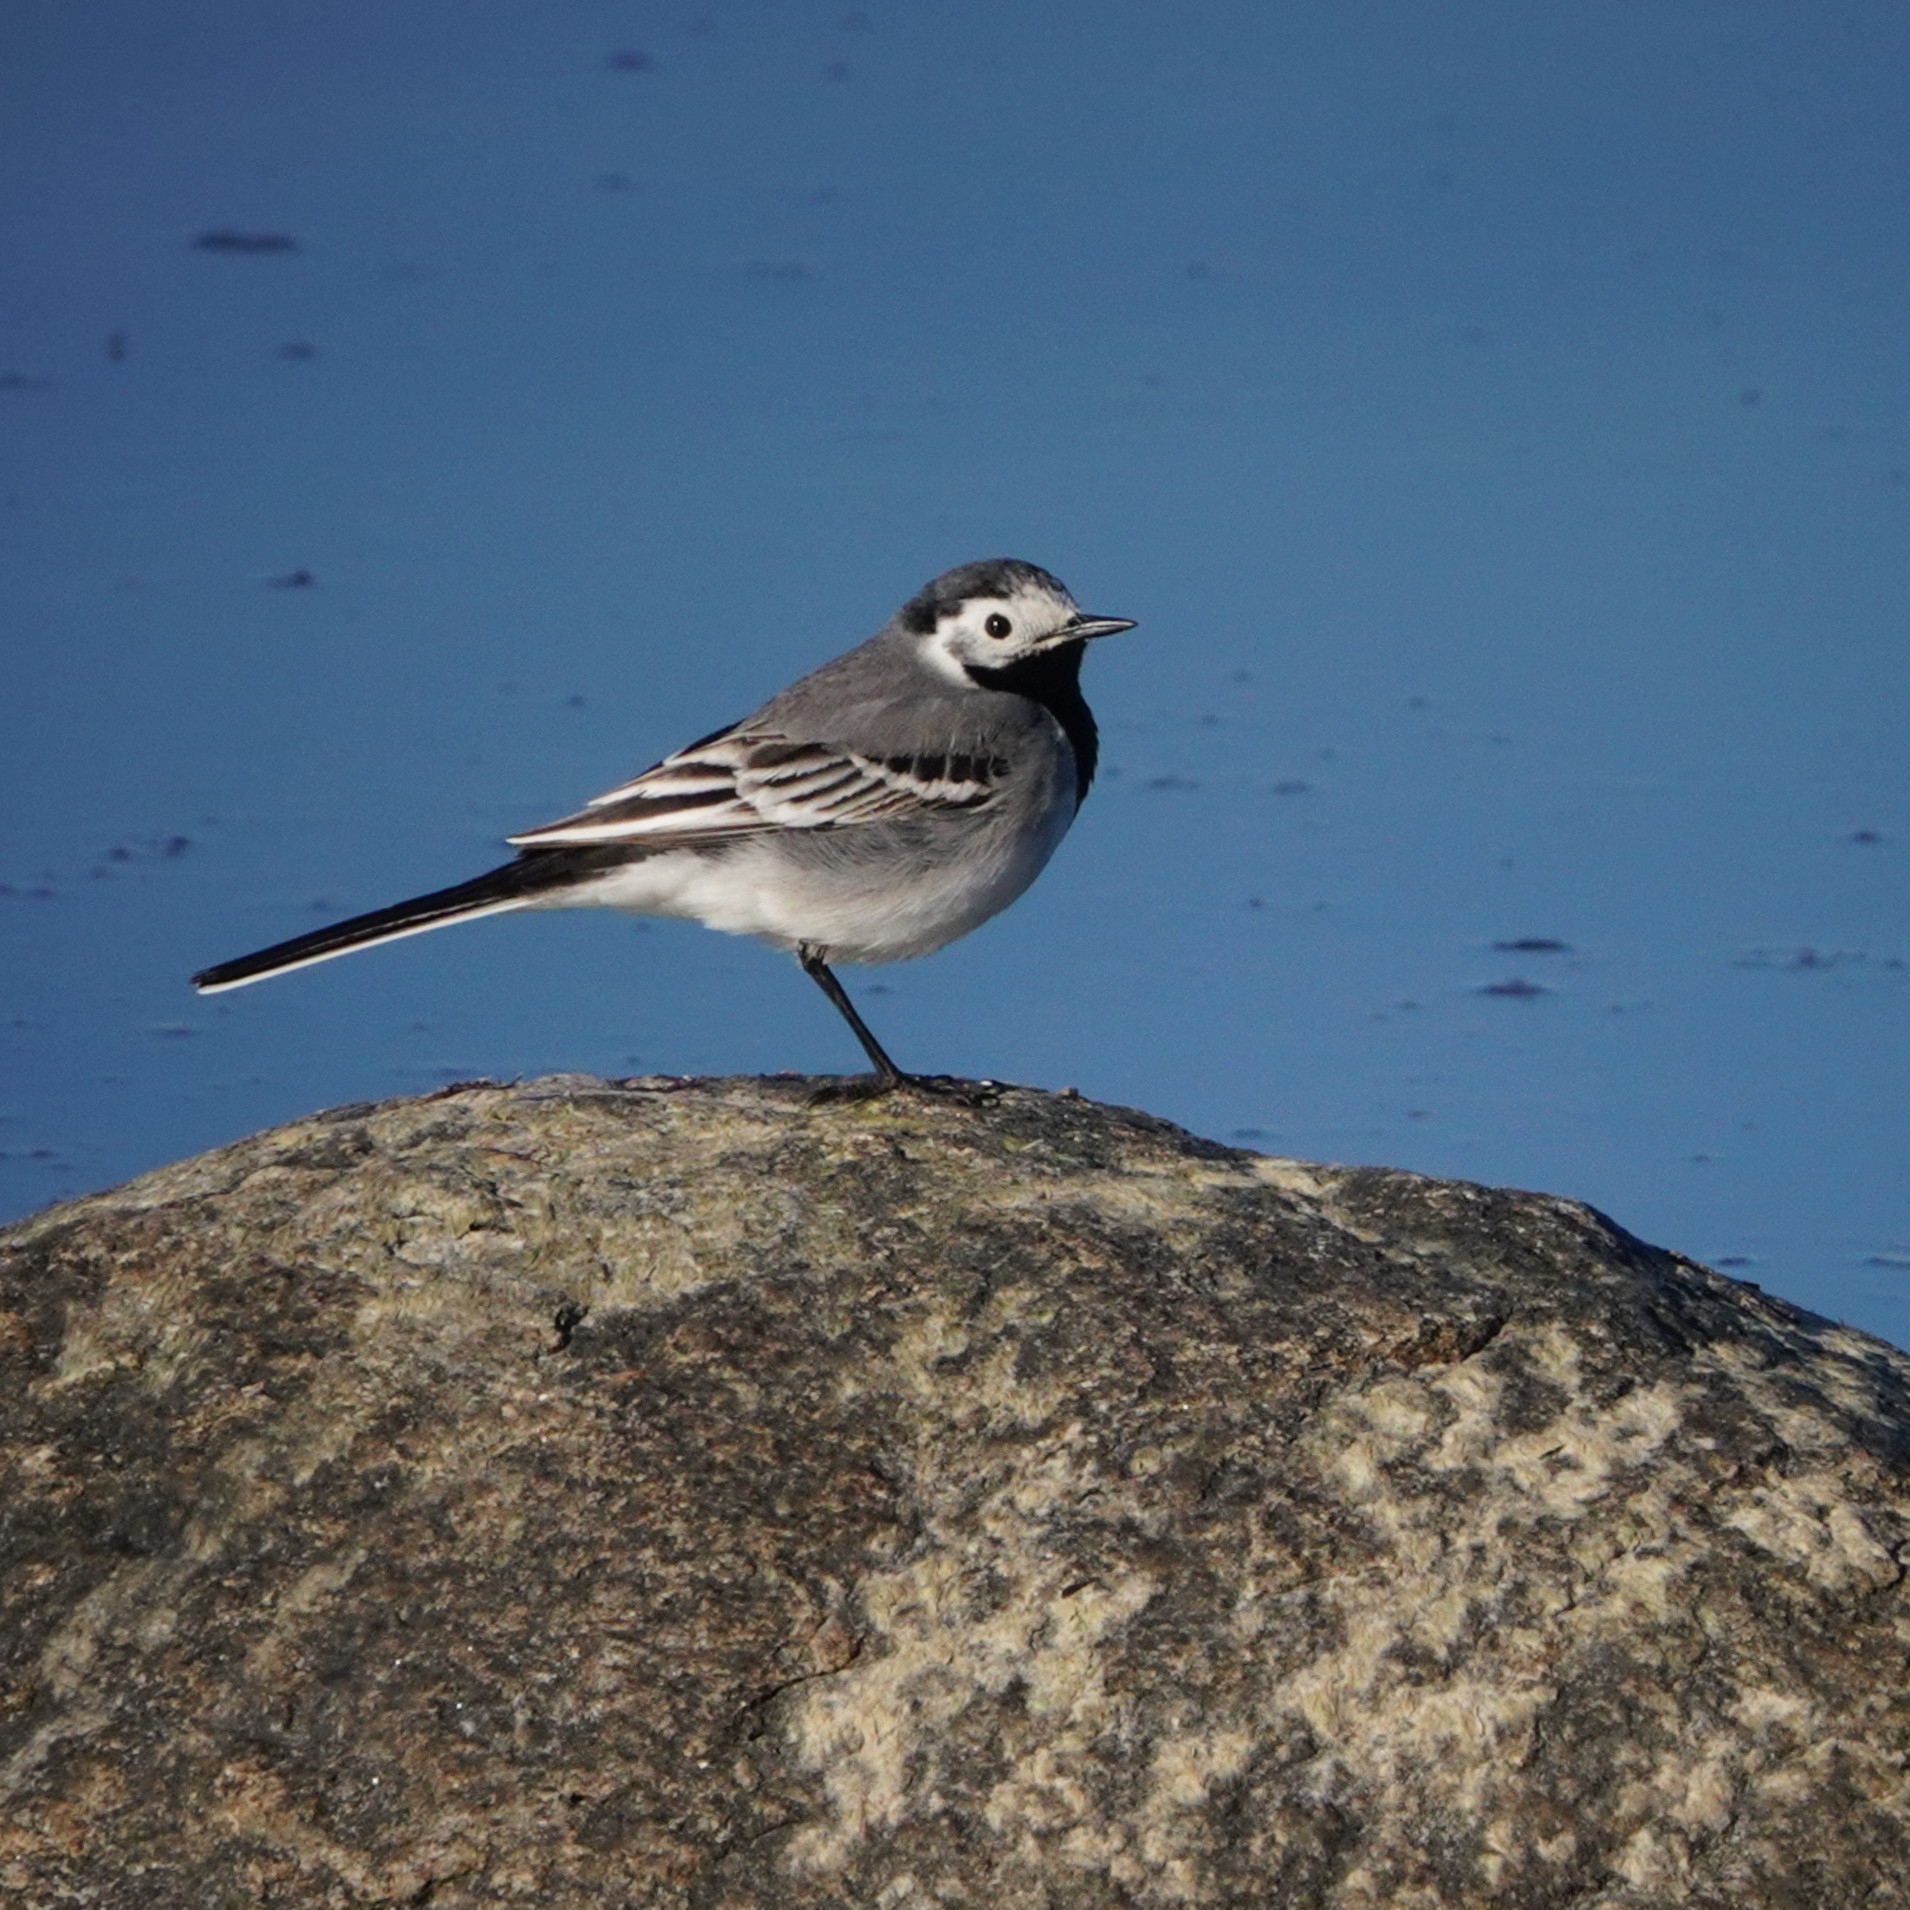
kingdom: Animalia
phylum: Chordata
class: Aves
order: Passeriformes
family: Motacillidae
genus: Motacilla
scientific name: Motacilla alba
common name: White wagtail
